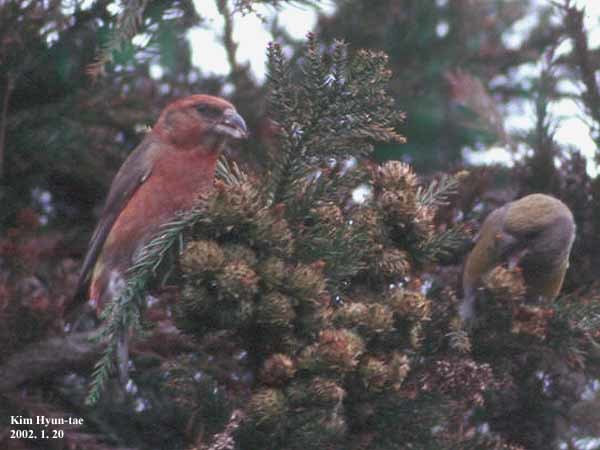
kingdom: Animalia
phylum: Chordata
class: Aves
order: Passeriformes
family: Fringillidae
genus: Loxia
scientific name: Loxia curvirostra
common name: Red crossbill
